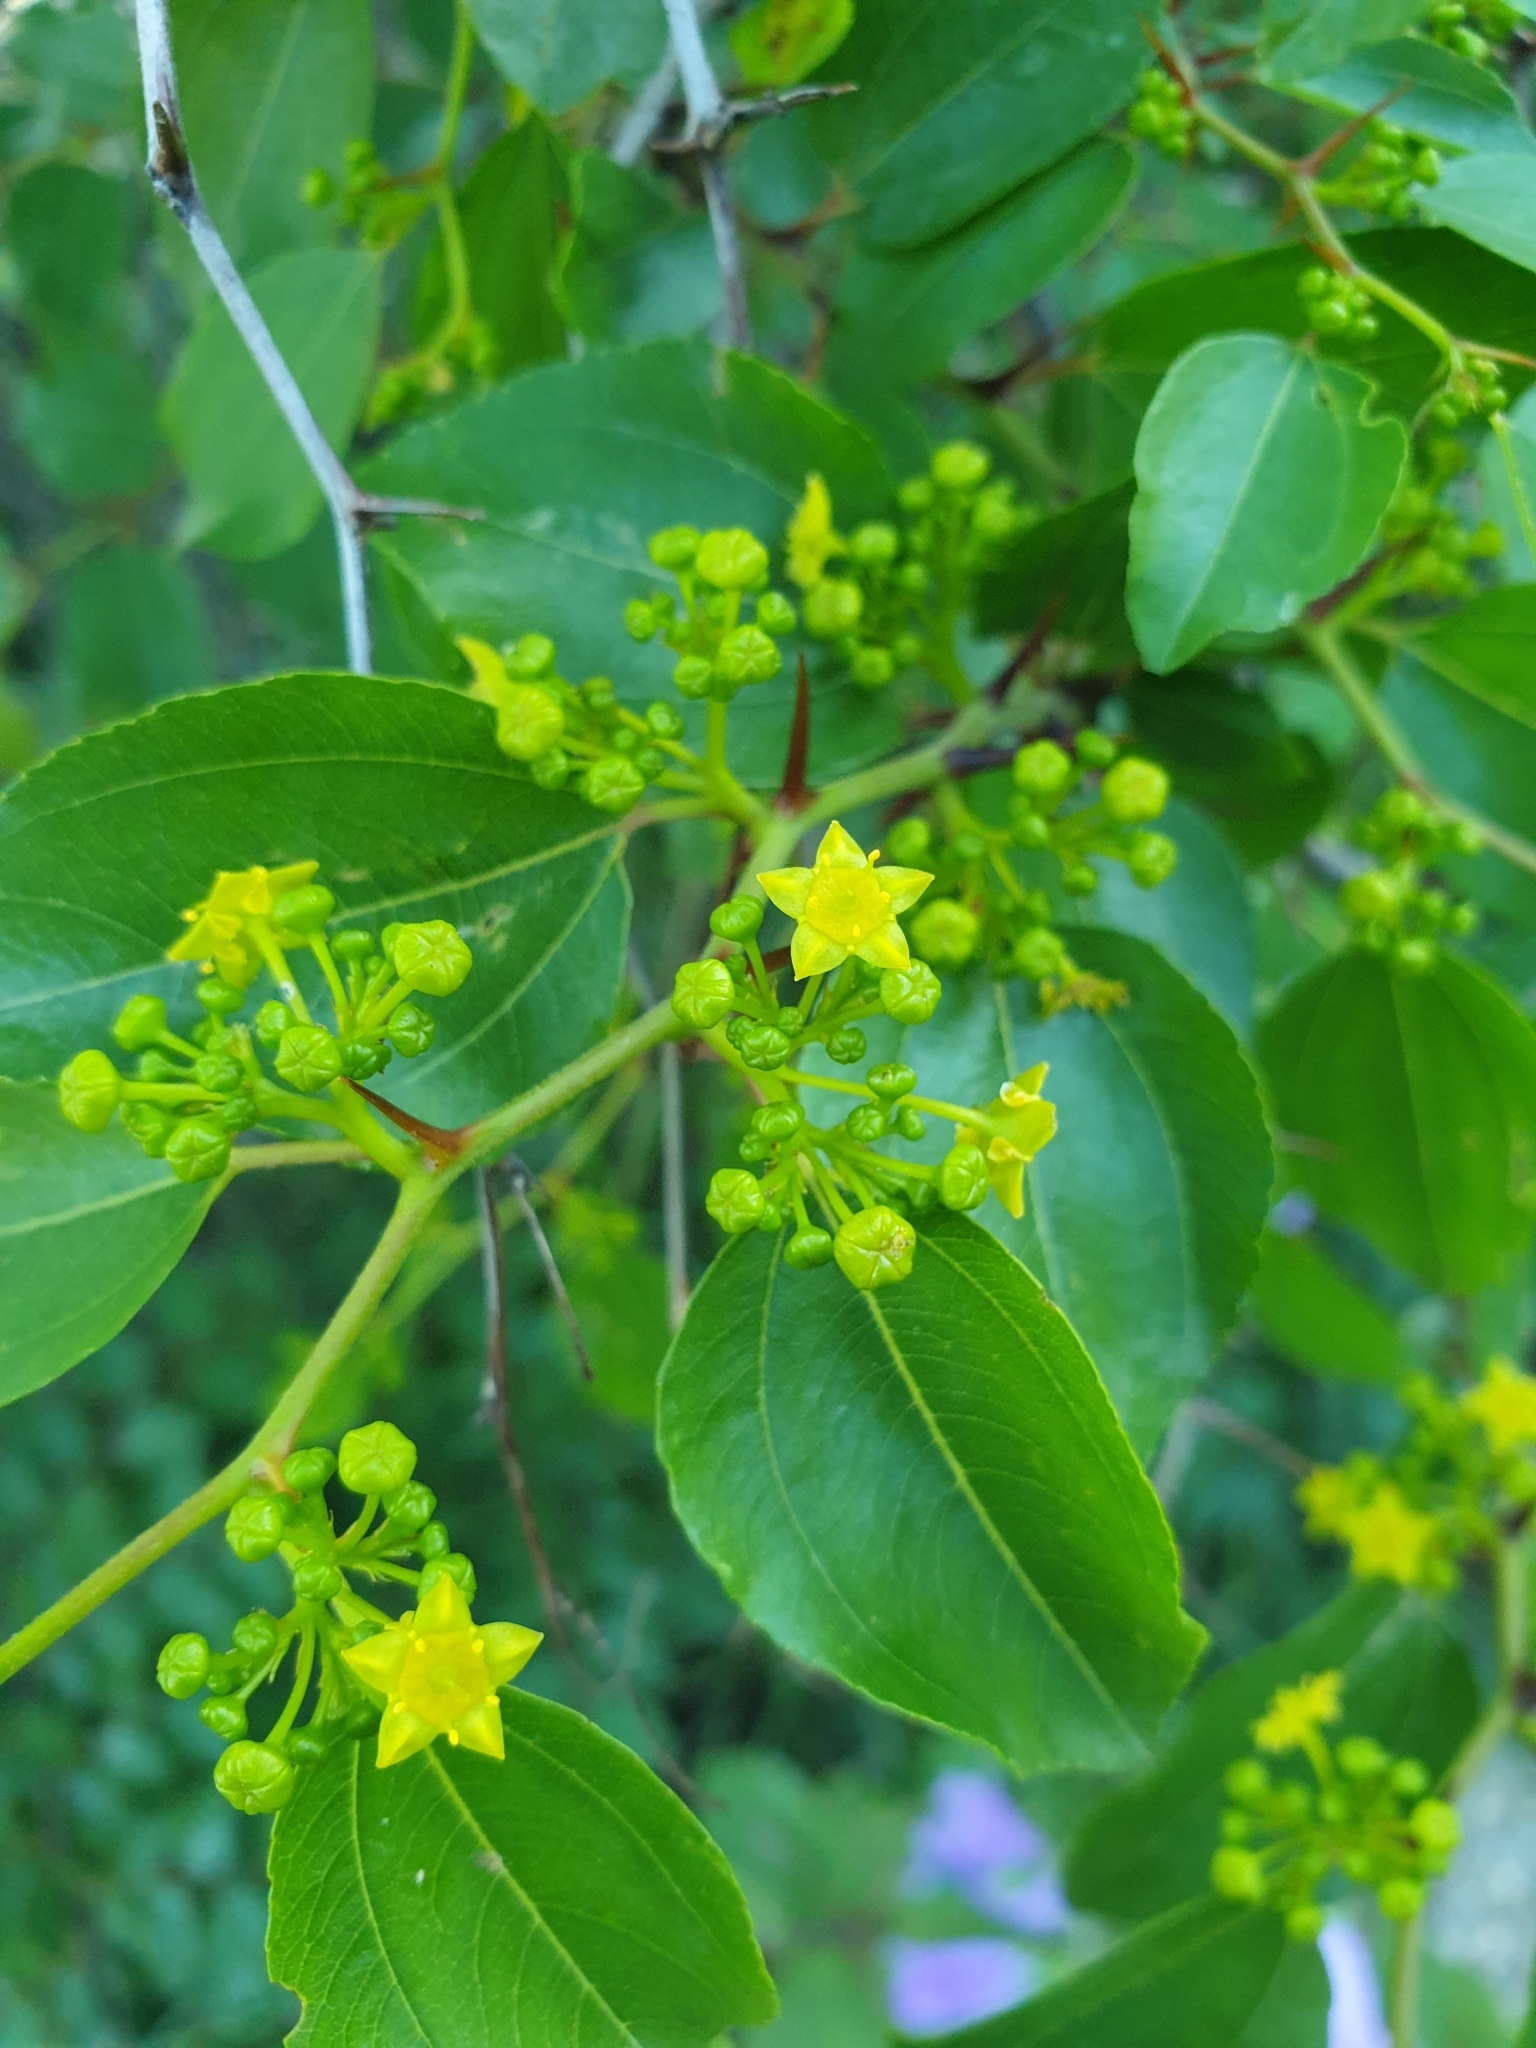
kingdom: Plantae
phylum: Tracheophyta
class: Magnoliopsida
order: Rosales
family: Rhamnaceae
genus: Paliurus
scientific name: Paliurus spina-christi
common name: Jeruselem thorn
